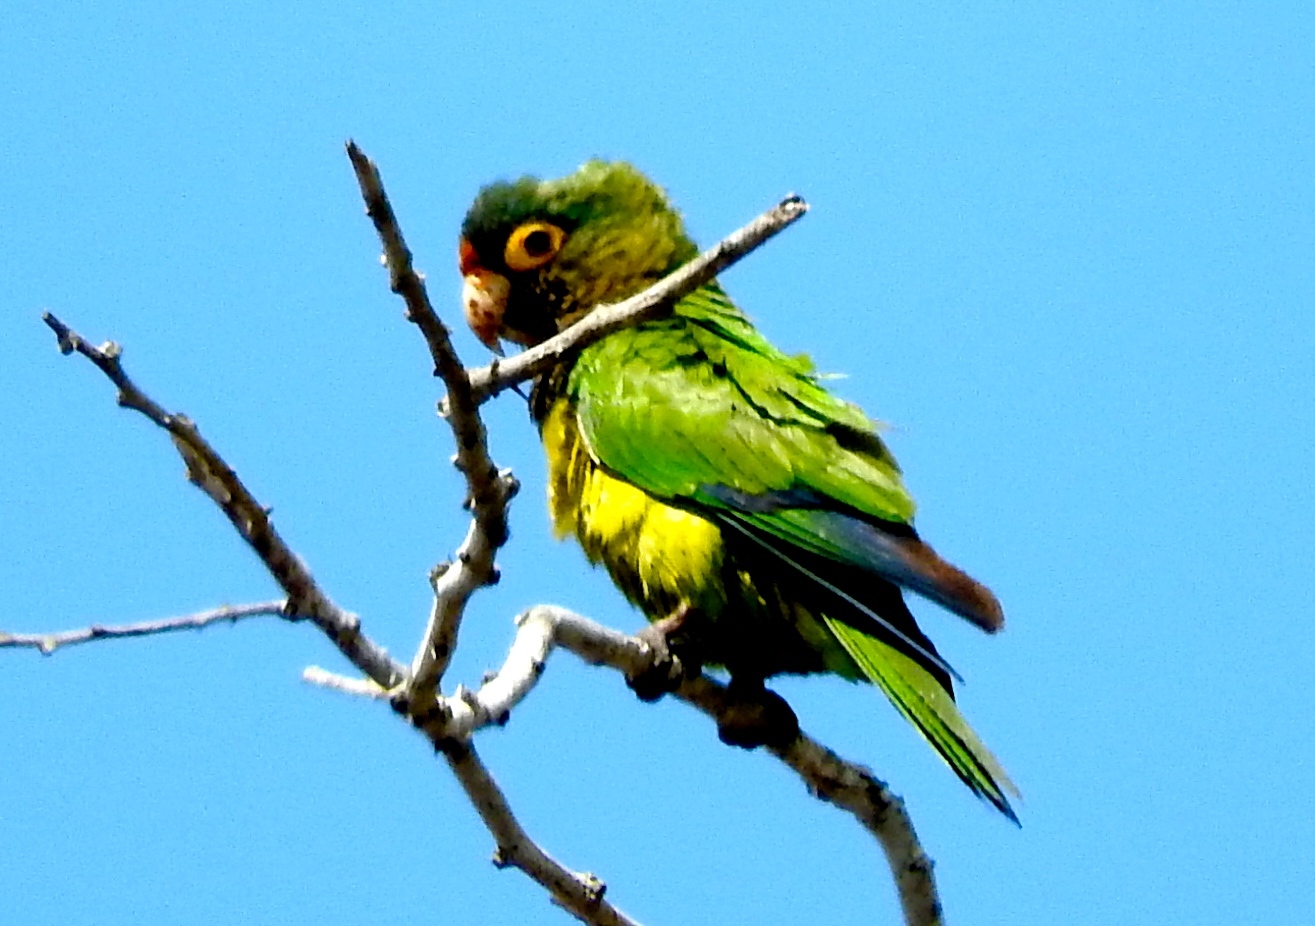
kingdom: Animalia
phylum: Chordata
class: Aves
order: Psittaciformes
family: Psittacidae
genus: Aratinga
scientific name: Aratinga canicularis
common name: Orange-fronted parakeet
